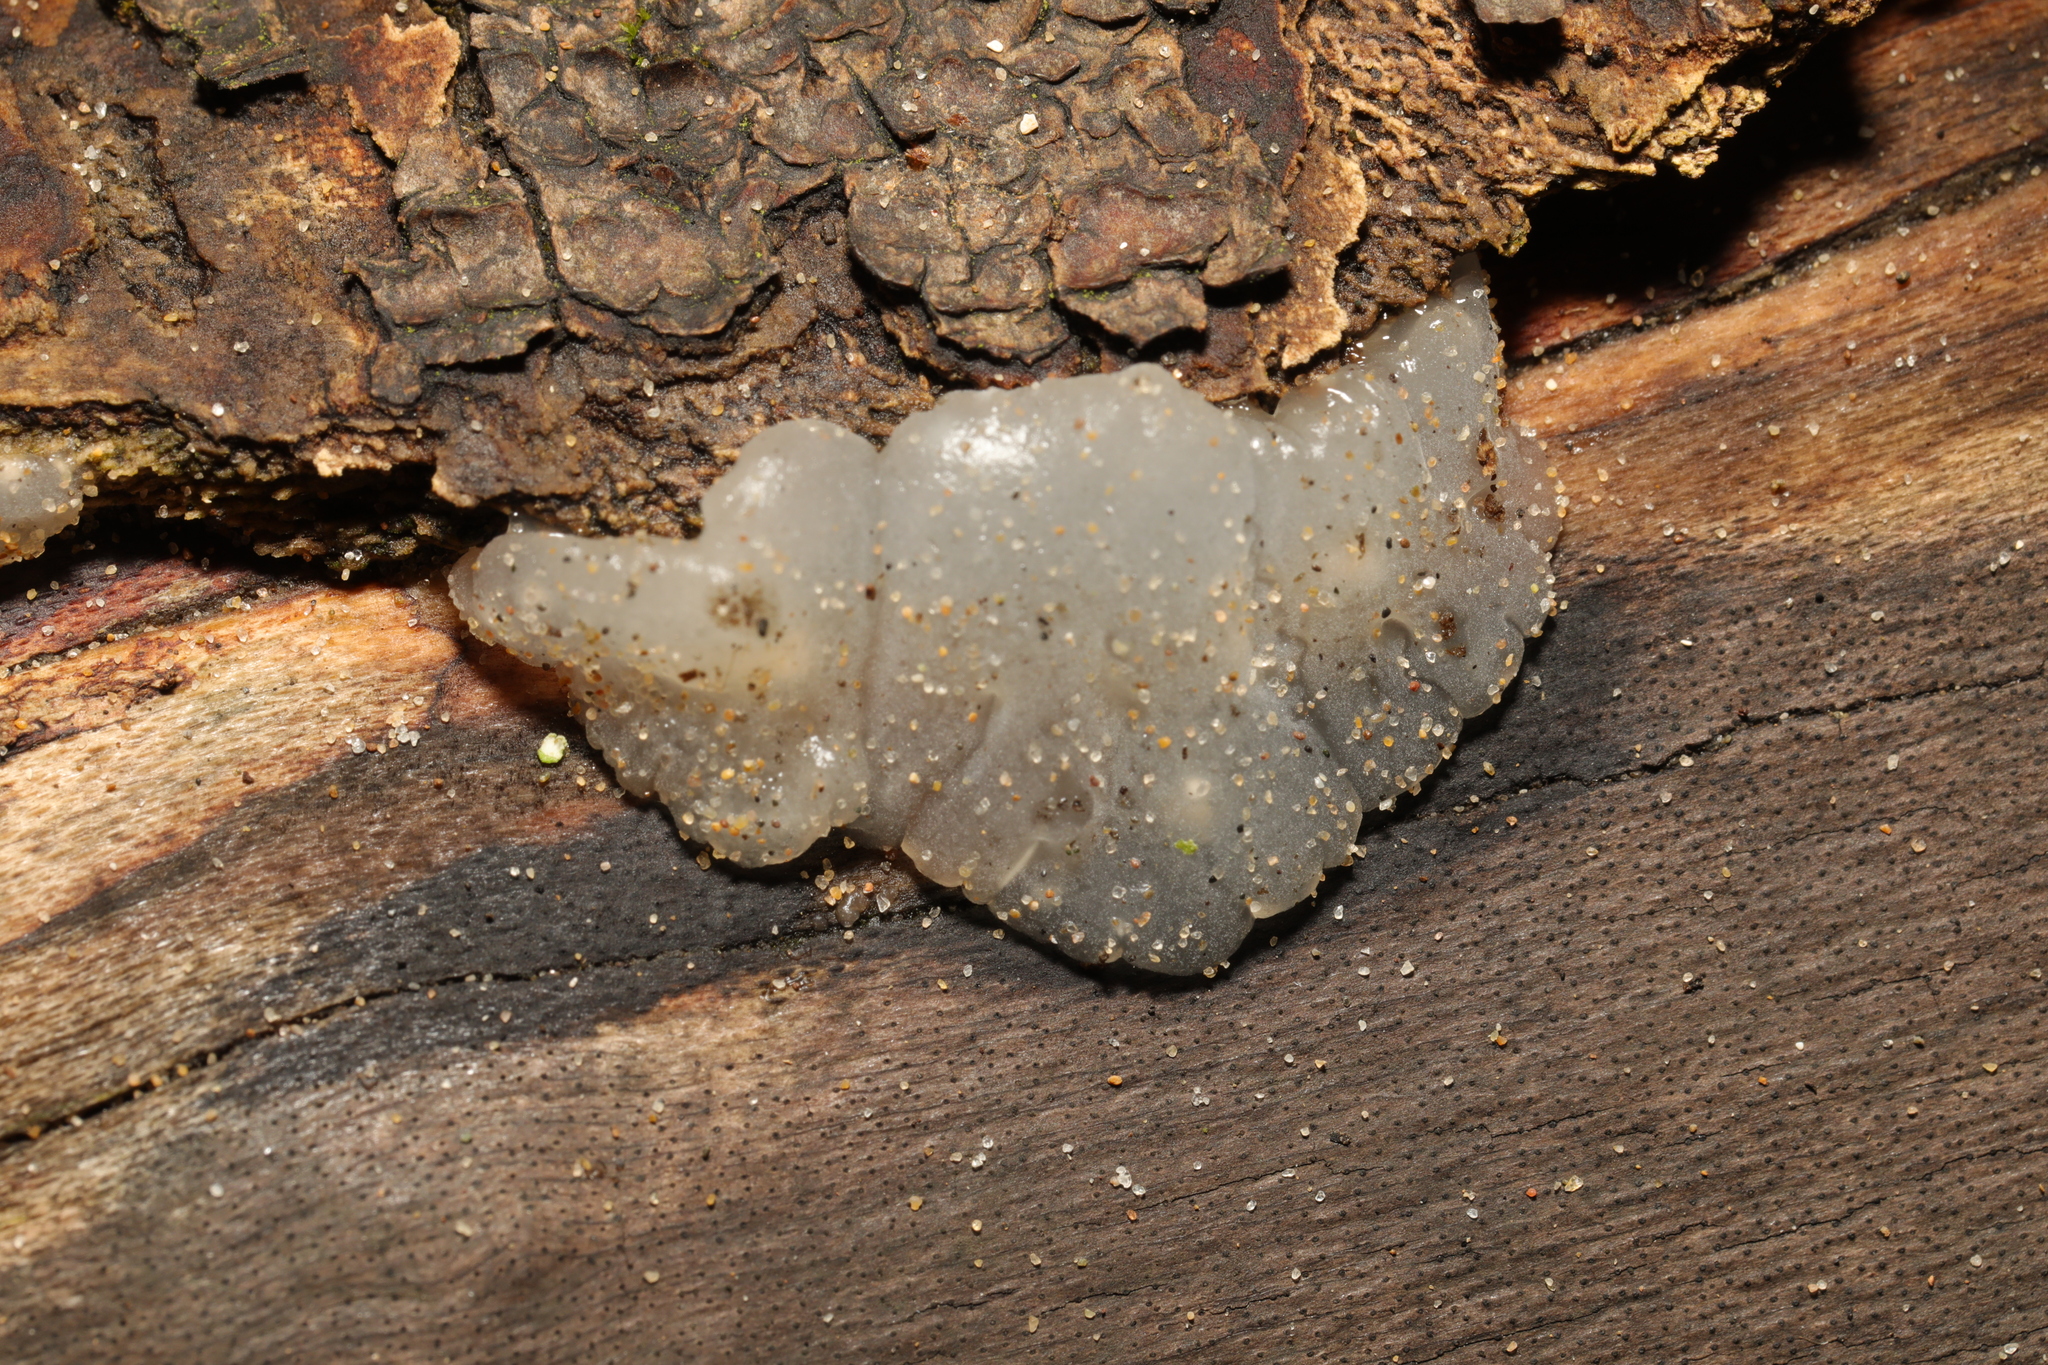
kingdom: Fungi
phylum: Basidiomycota
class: Agaricomycetes
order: Auriculariales
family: Hyaloriaceae
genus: Myxarium
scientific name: Myxarium nucleatum
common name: Crystal brain fungus
